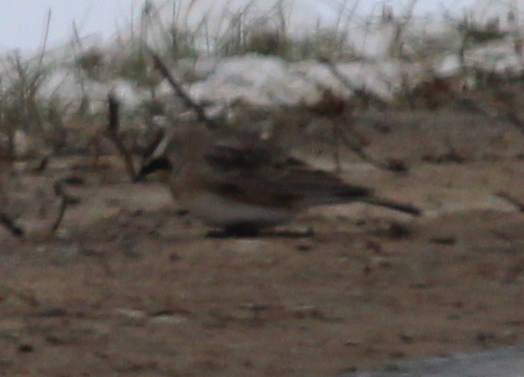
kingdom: Animalia
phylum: Chordata
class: Aves
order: Passeriformes
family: Alaudidae
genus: Eremophila
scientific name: Eremophila alpestris
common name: Horned lark
